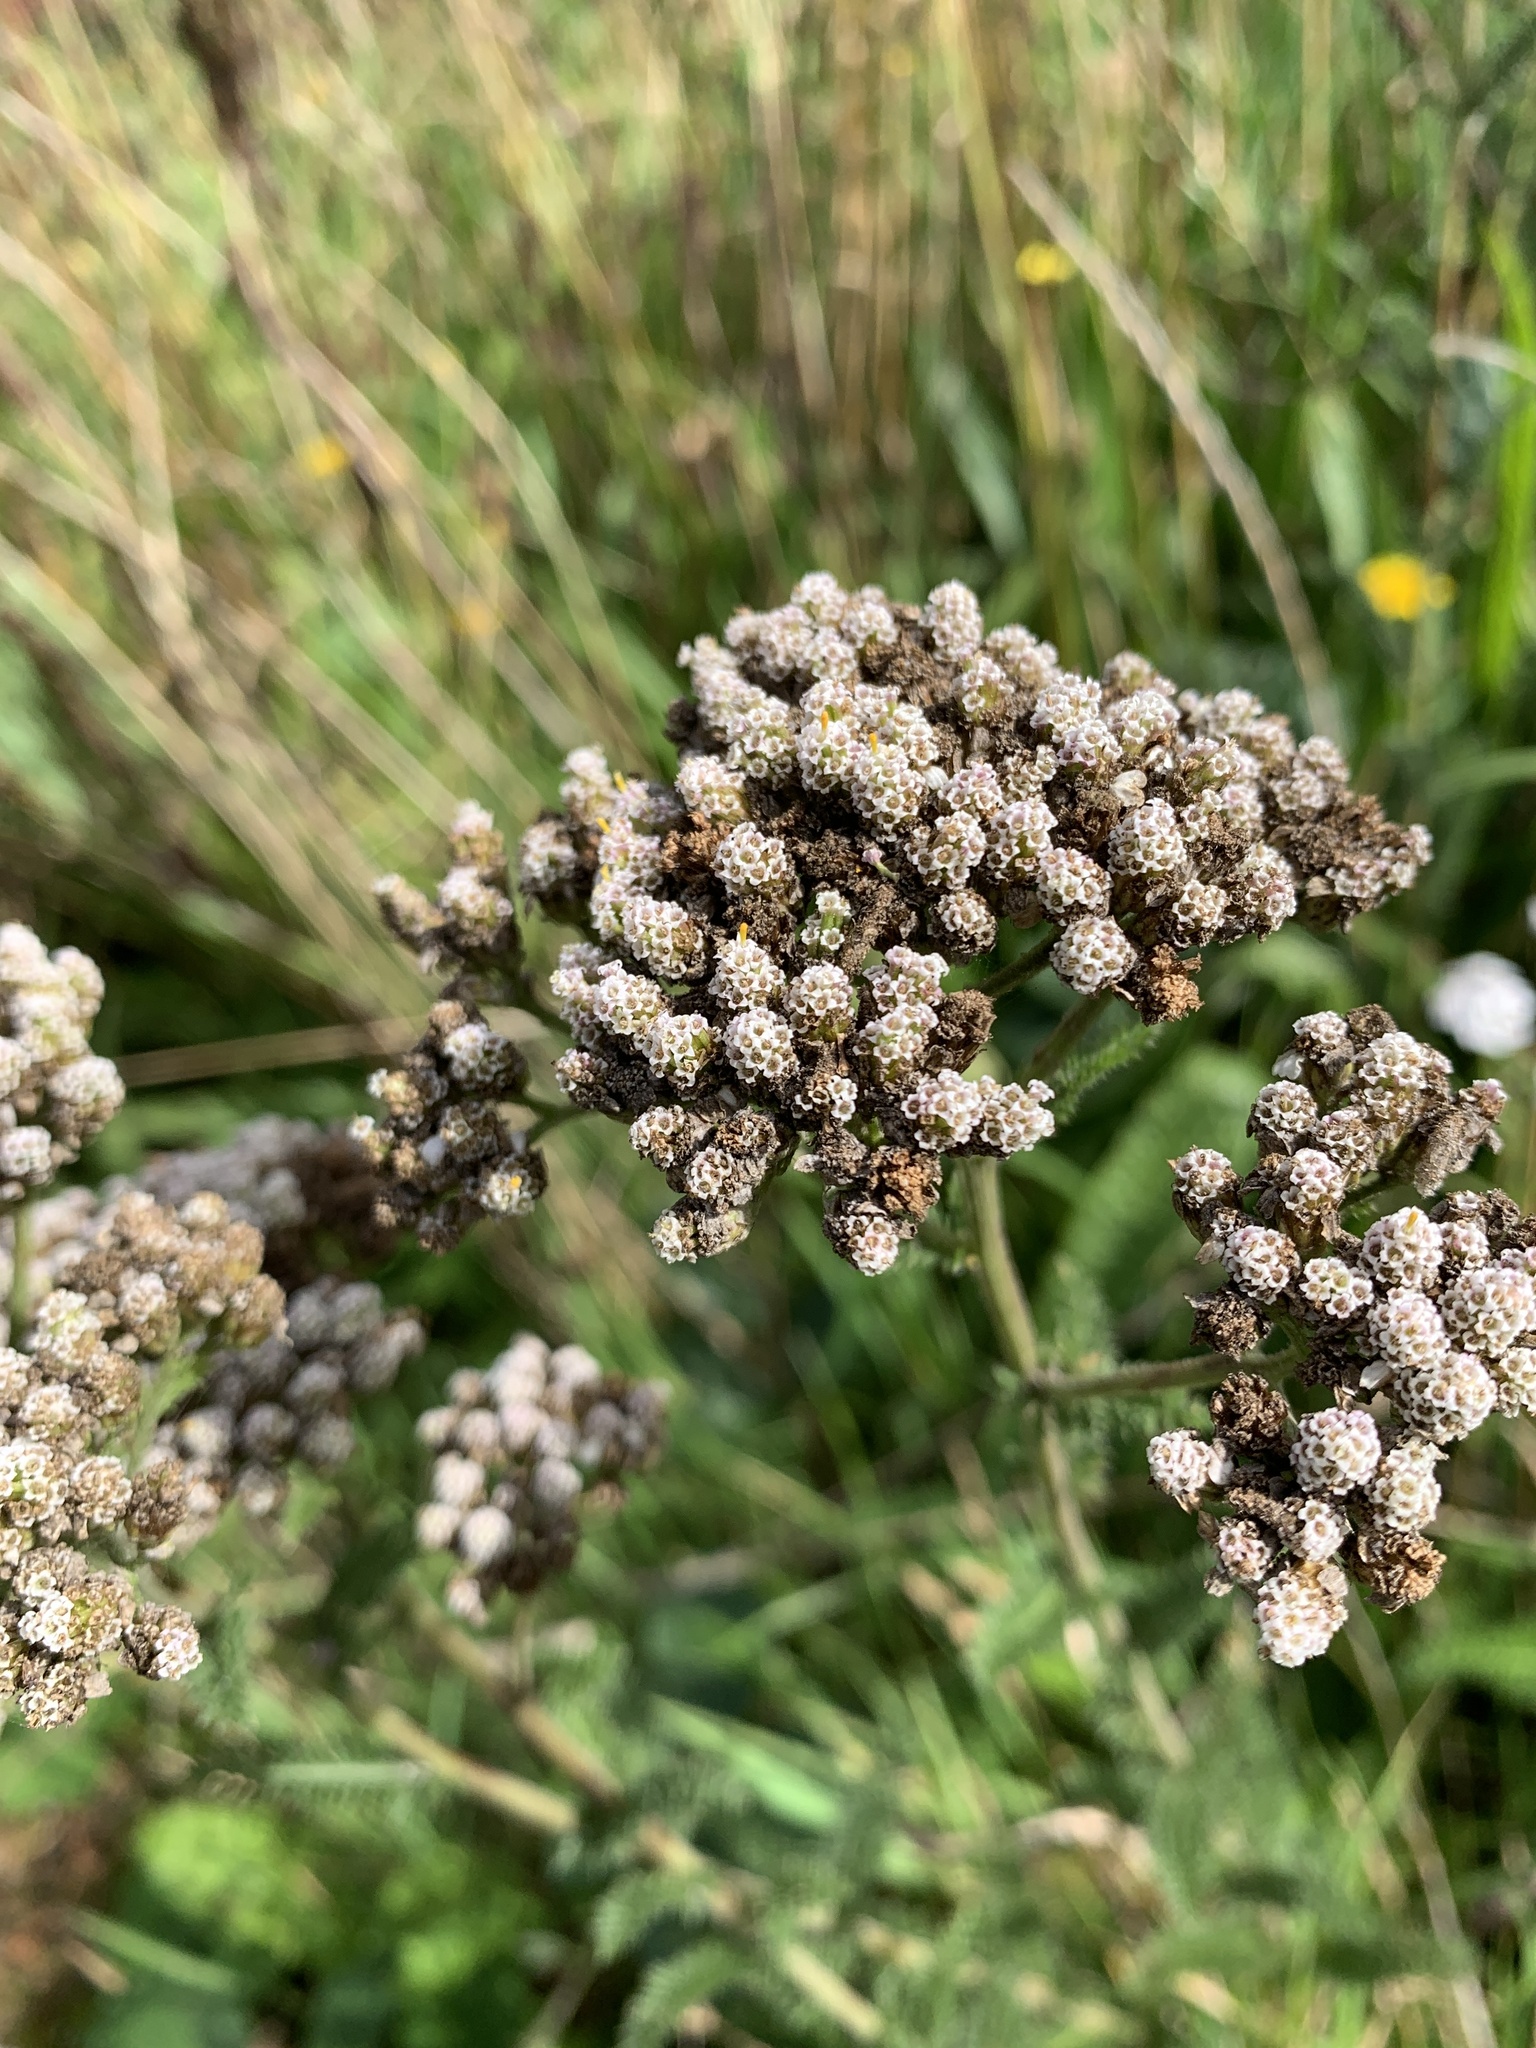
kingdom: Plantae
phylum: Tracheophyta
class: Magnoliopsida
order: Asterales
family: Asteraceae
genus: Achillea
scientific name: Achillea millefolium
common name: Yarrow
